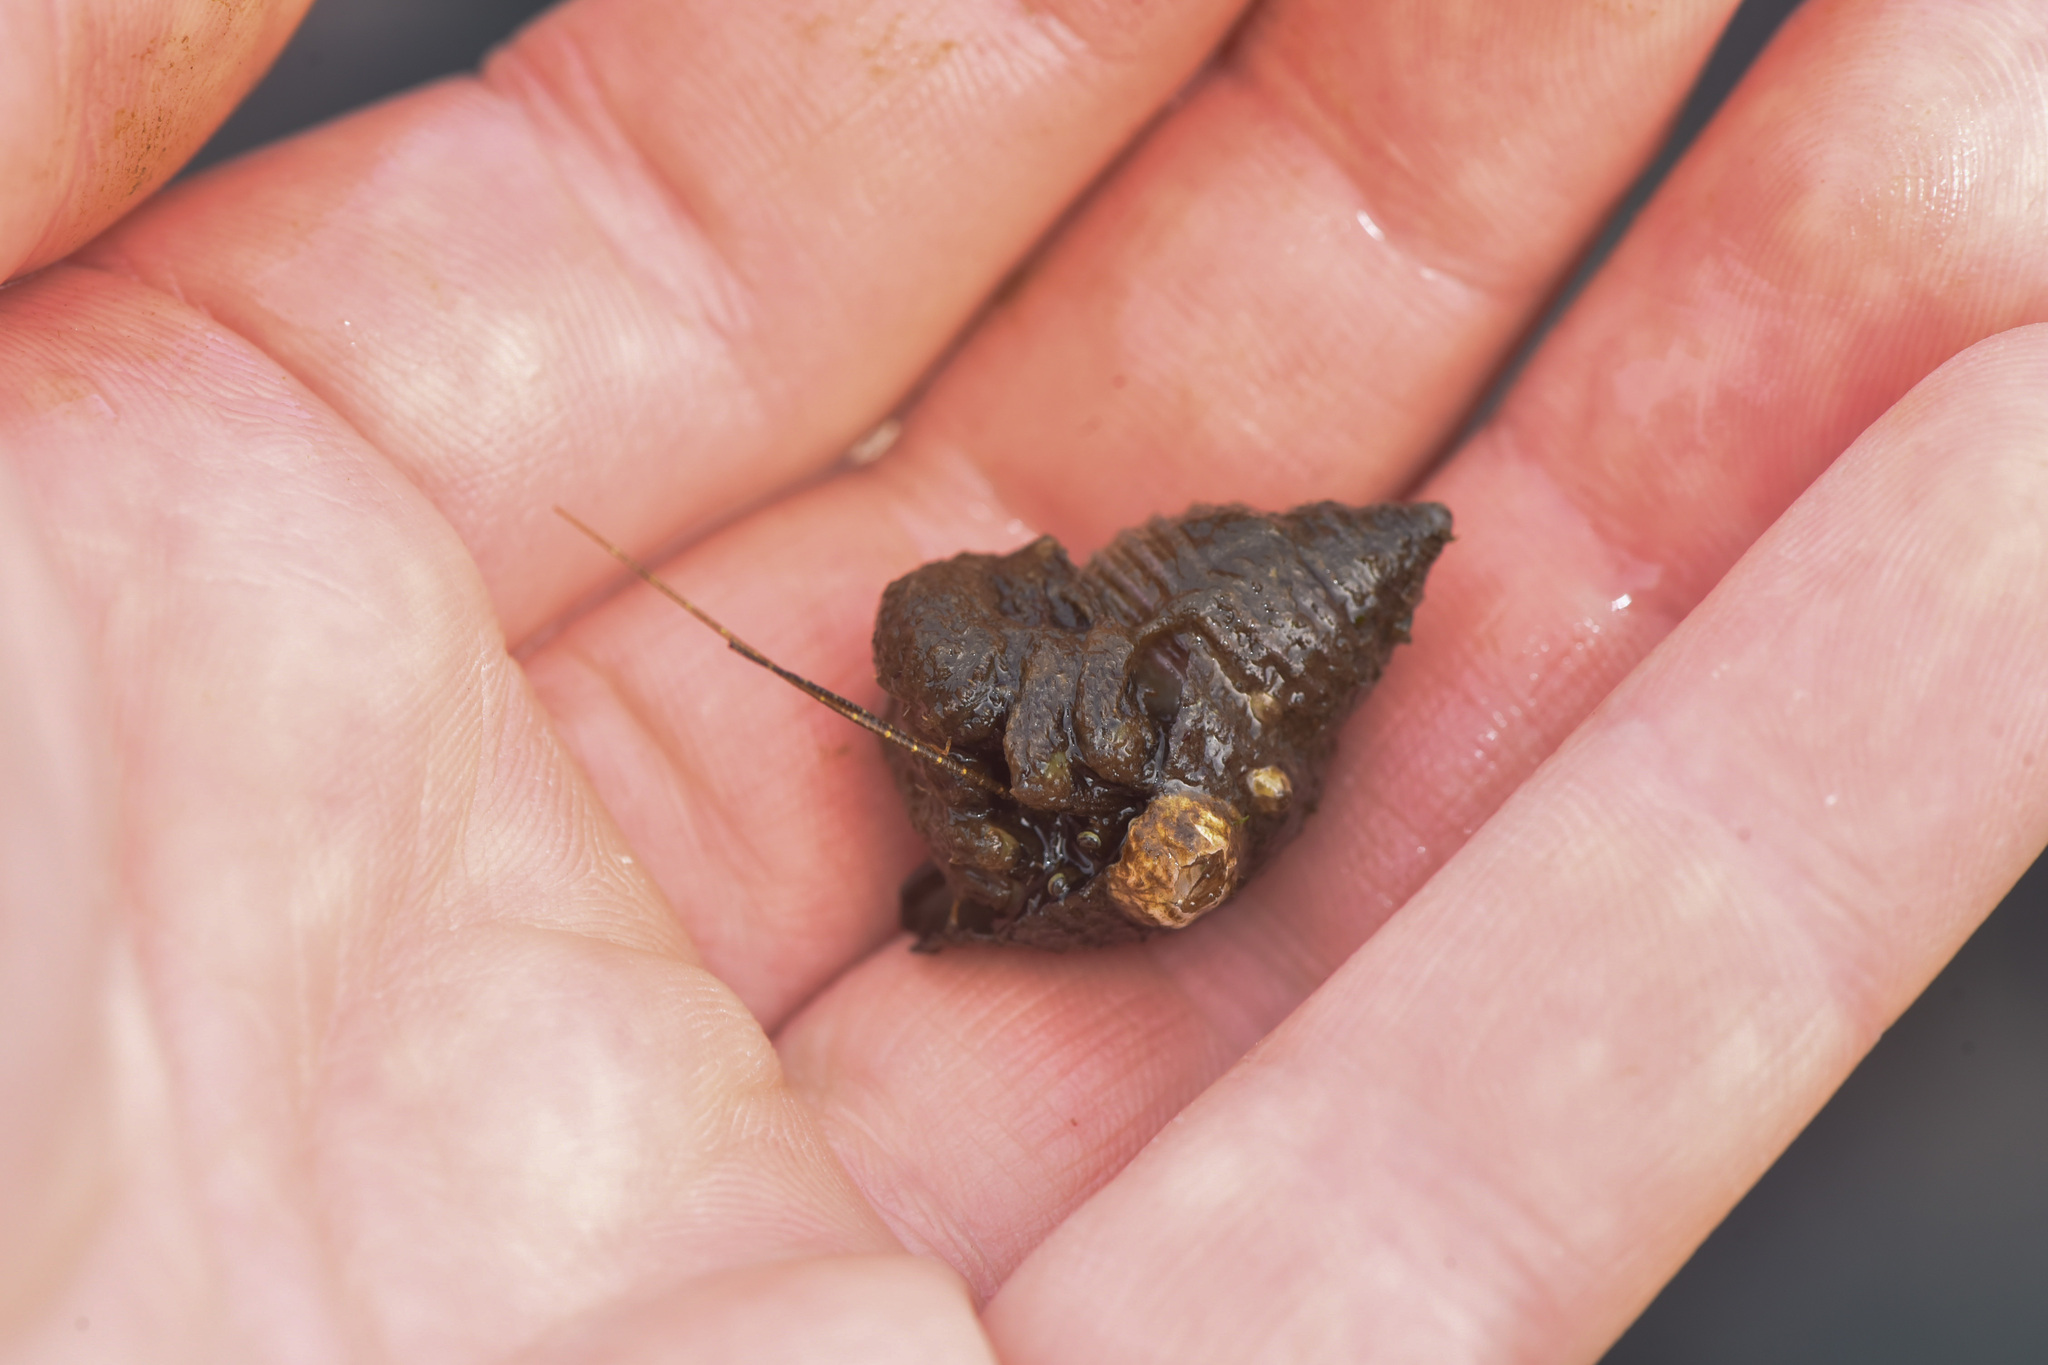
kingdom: Animalia
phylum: Arthropoda
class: Malacostraca
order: Decapoda
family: Paguridae
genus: Pagurus
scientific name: Pagurus hirsutiusculus
